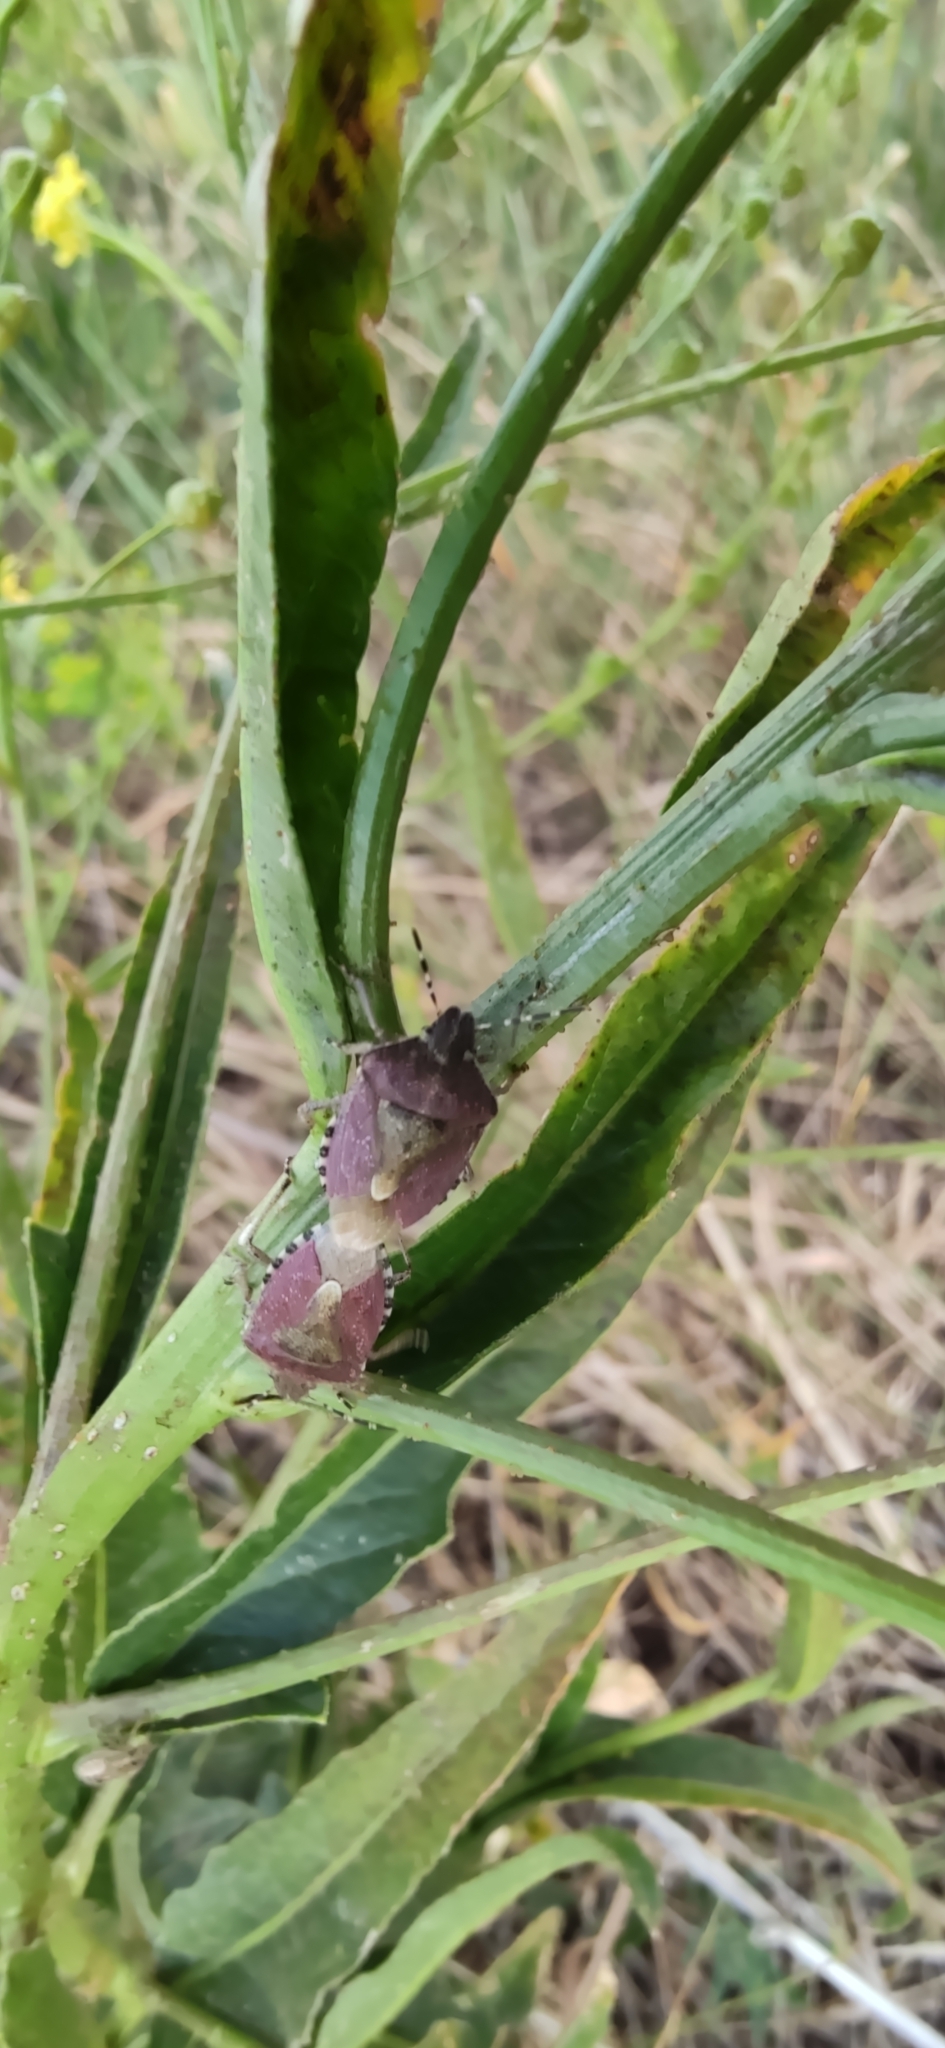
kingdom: Animalia
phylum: Arthropoda
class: Insecta
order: Hemiptera
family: Pentatomidae
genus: Dolycoris
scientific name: Dolycoris baccarum
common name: Sloe bug
